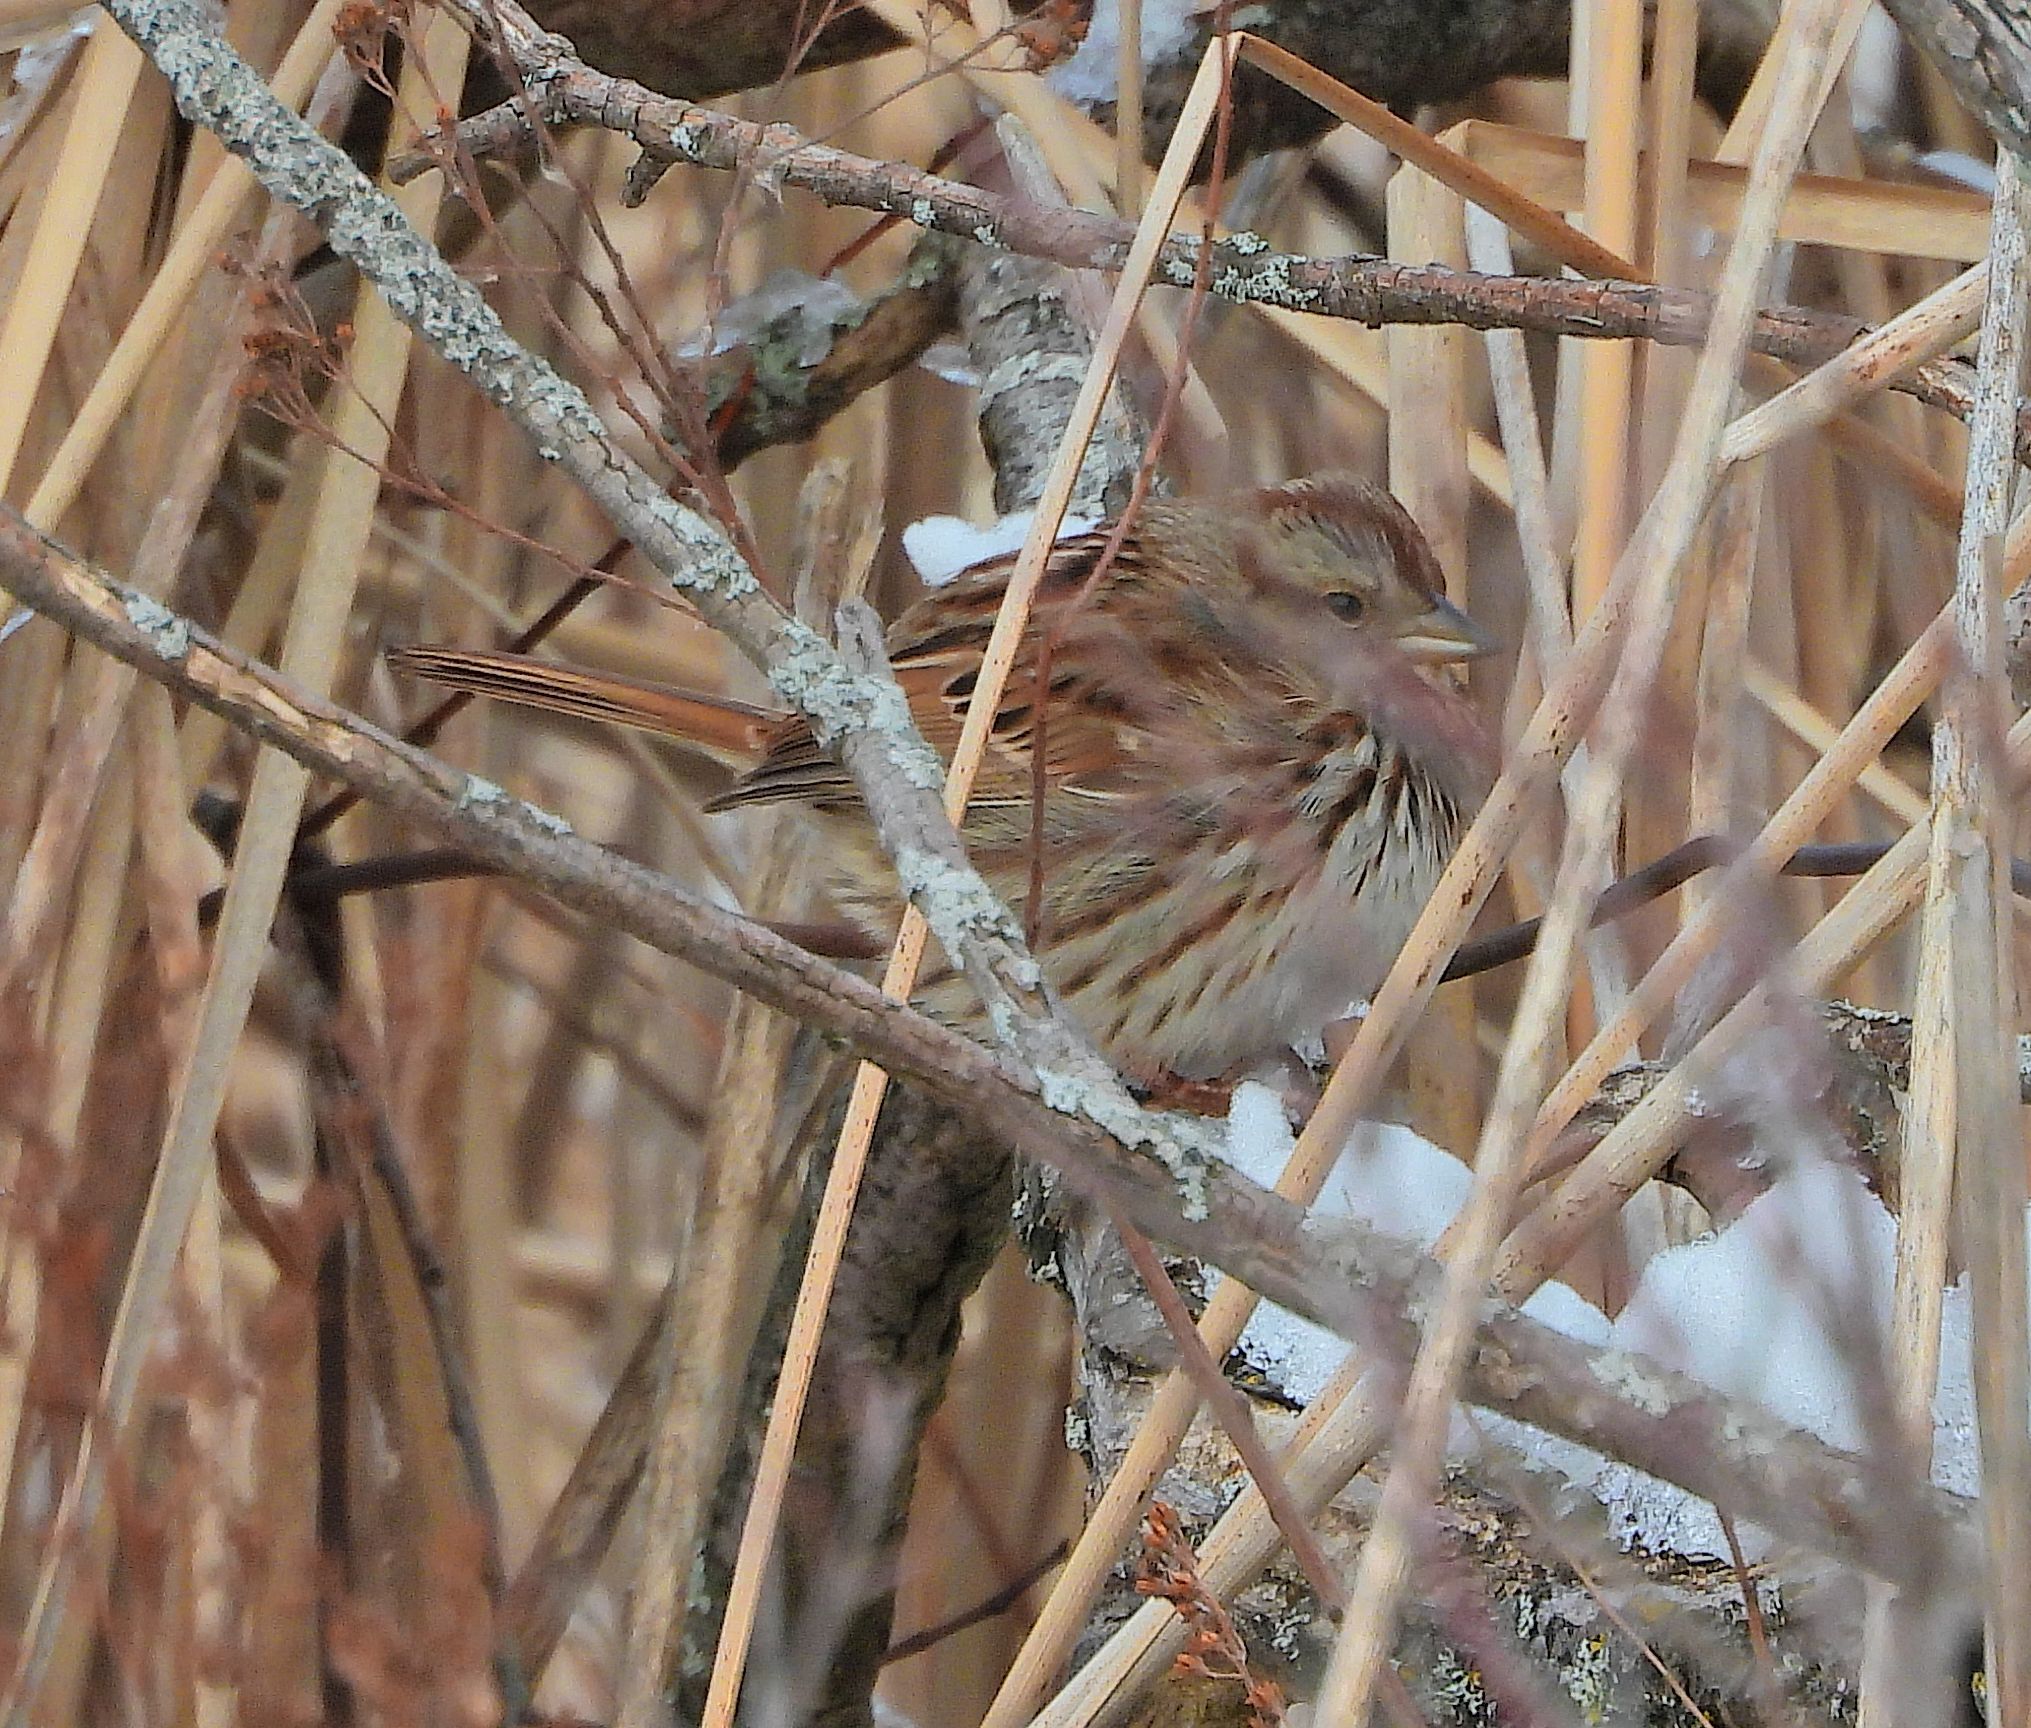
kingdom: Animalia
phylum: Chordata
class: Aves
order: Passeriformes
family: Passerellidae
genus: Melospiza
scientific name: Melospiza melodia
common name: Song sparrow
